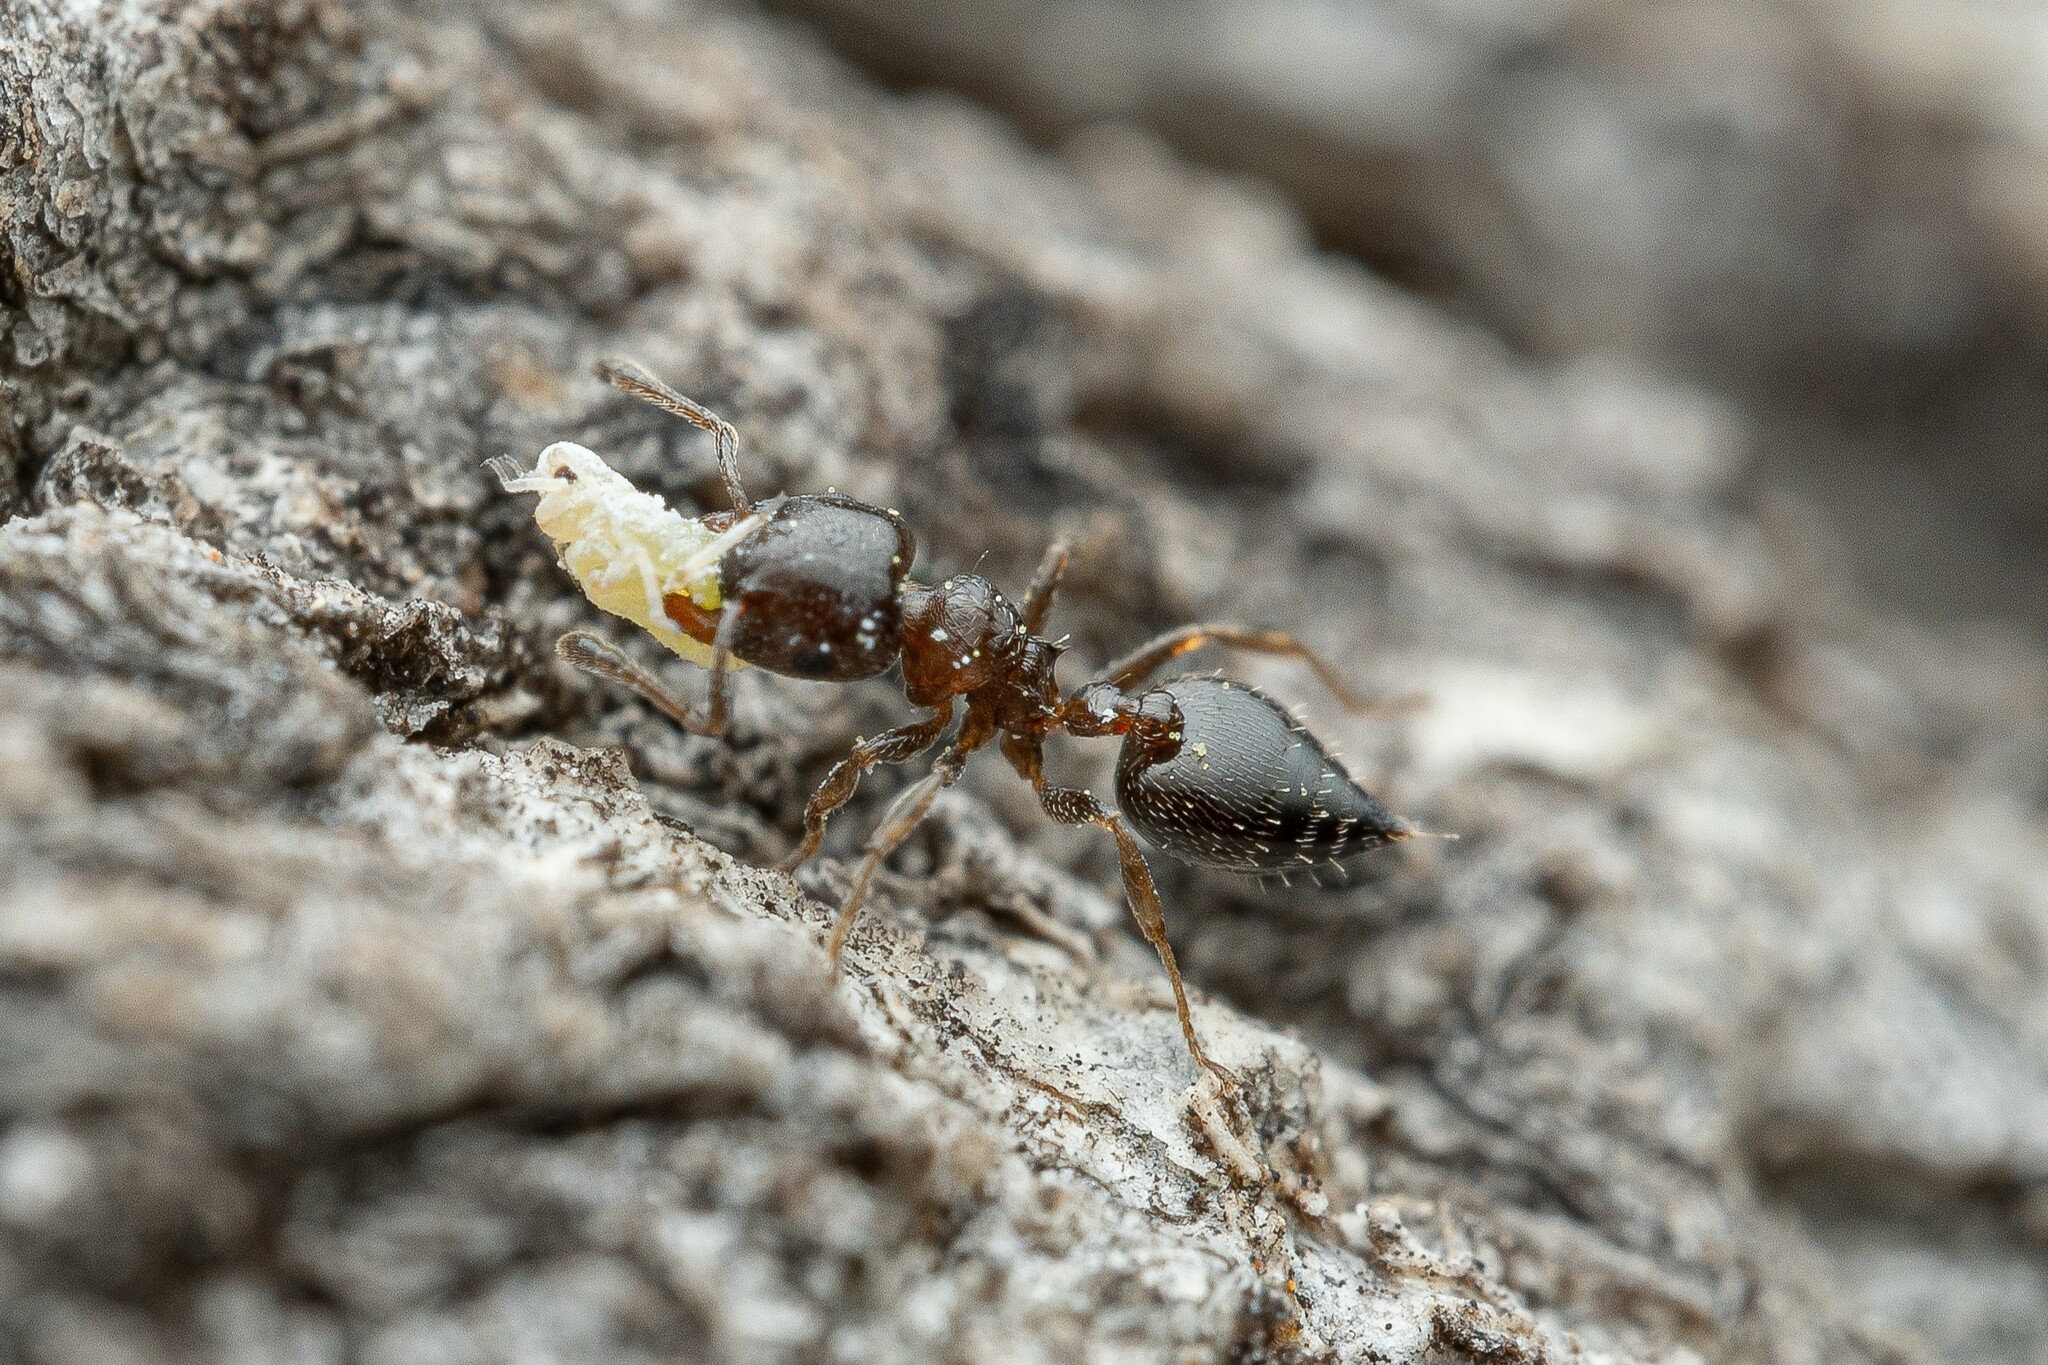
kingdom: Animalia
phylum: Arthropoda
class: Insecta
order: Hymenoptera
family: Formicidae
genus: Crematogaster
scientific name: Crematogaster torosa
